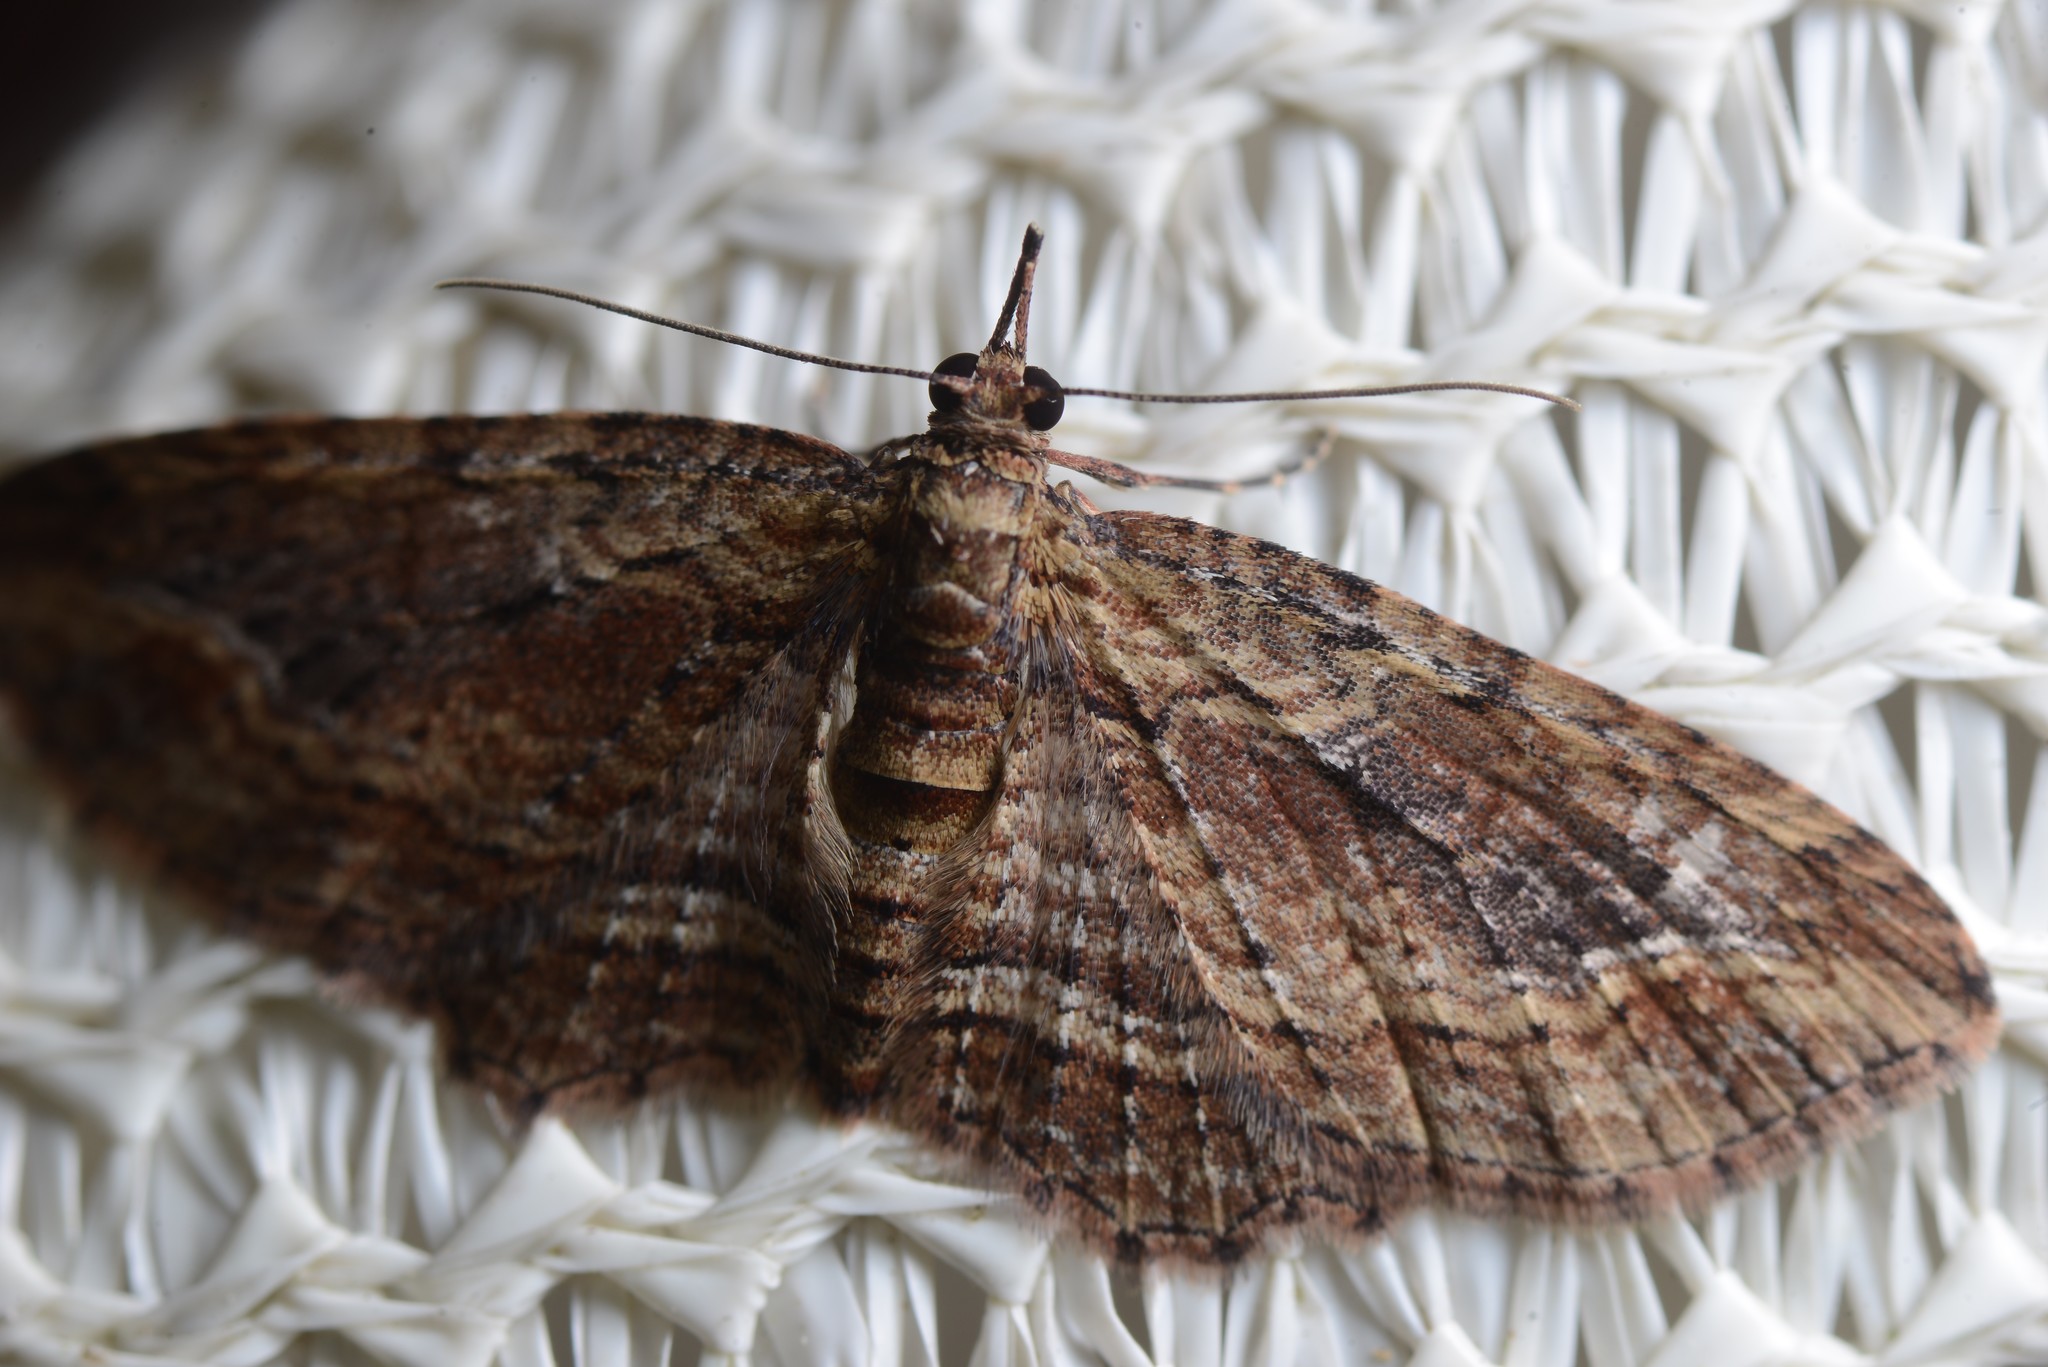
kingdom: Animalia
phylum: Arthropoda
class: Insecta
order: Lepidoptera
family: Geometridae
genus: Chloroclystis
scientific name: Chloroclystis filata
